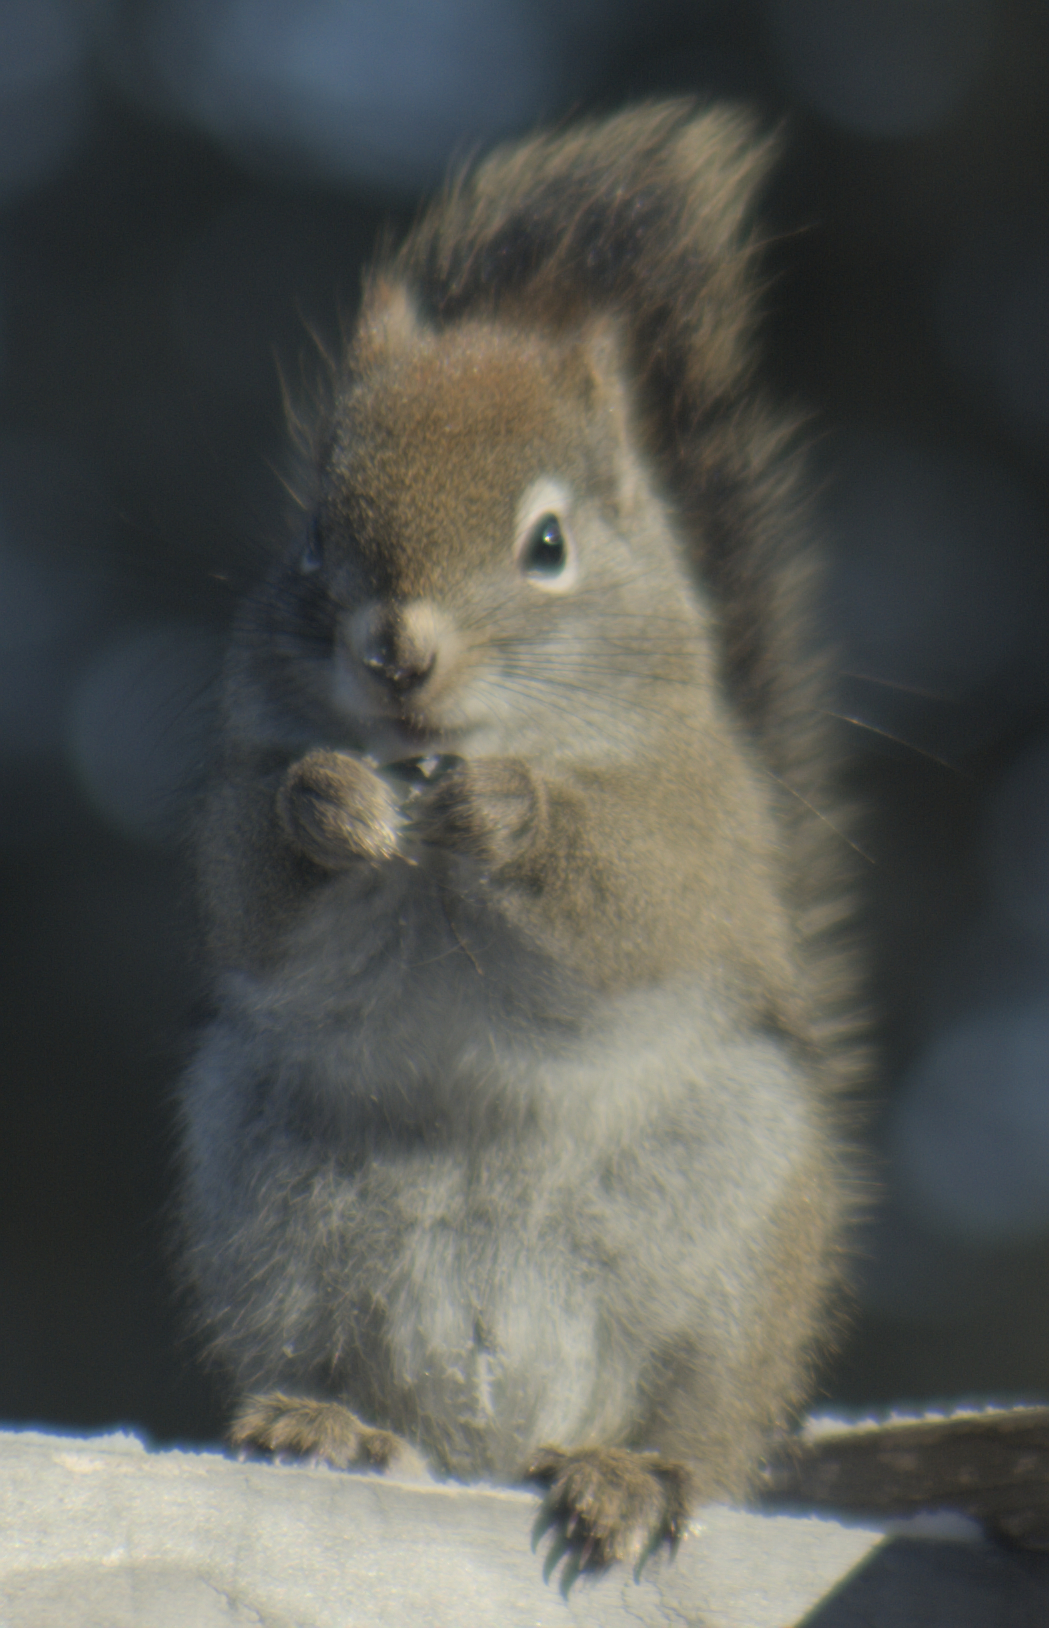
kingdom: Animalia
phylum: Chordata
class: Mammalia
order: Rodentia
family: Sciuridae
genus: Tamiasciurus
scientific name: Tamiasciurus hudsonicus
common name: Red squirrel
